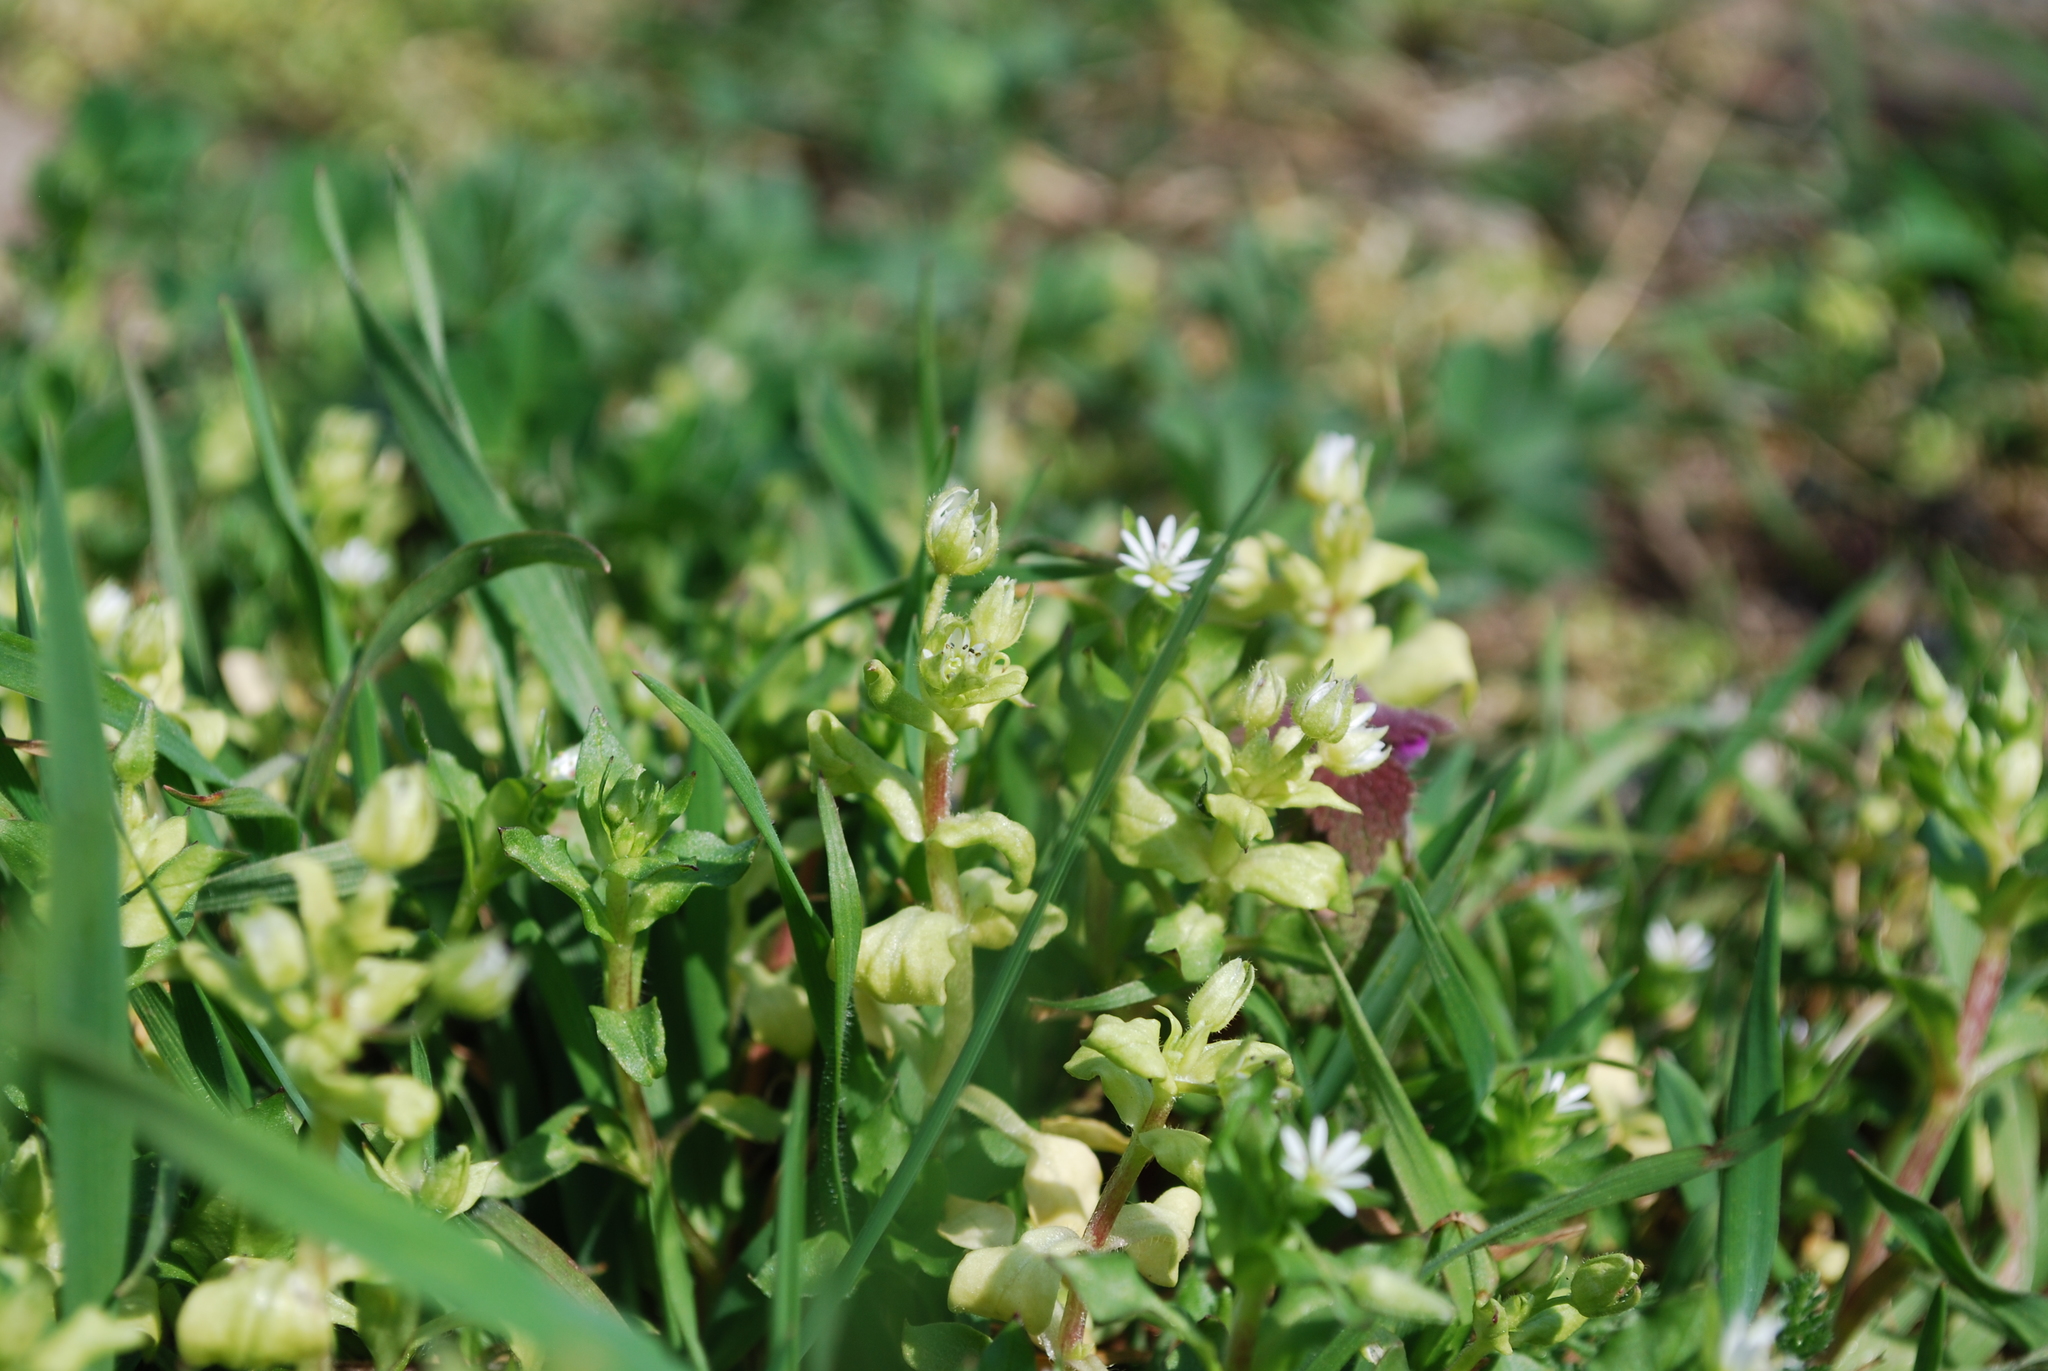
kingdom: Plantae
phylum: Tracheophyta
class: Magnoliopsida
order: Caryophyllales
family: Caryophyllaceae
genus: Stellaria
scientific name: Stellaria
